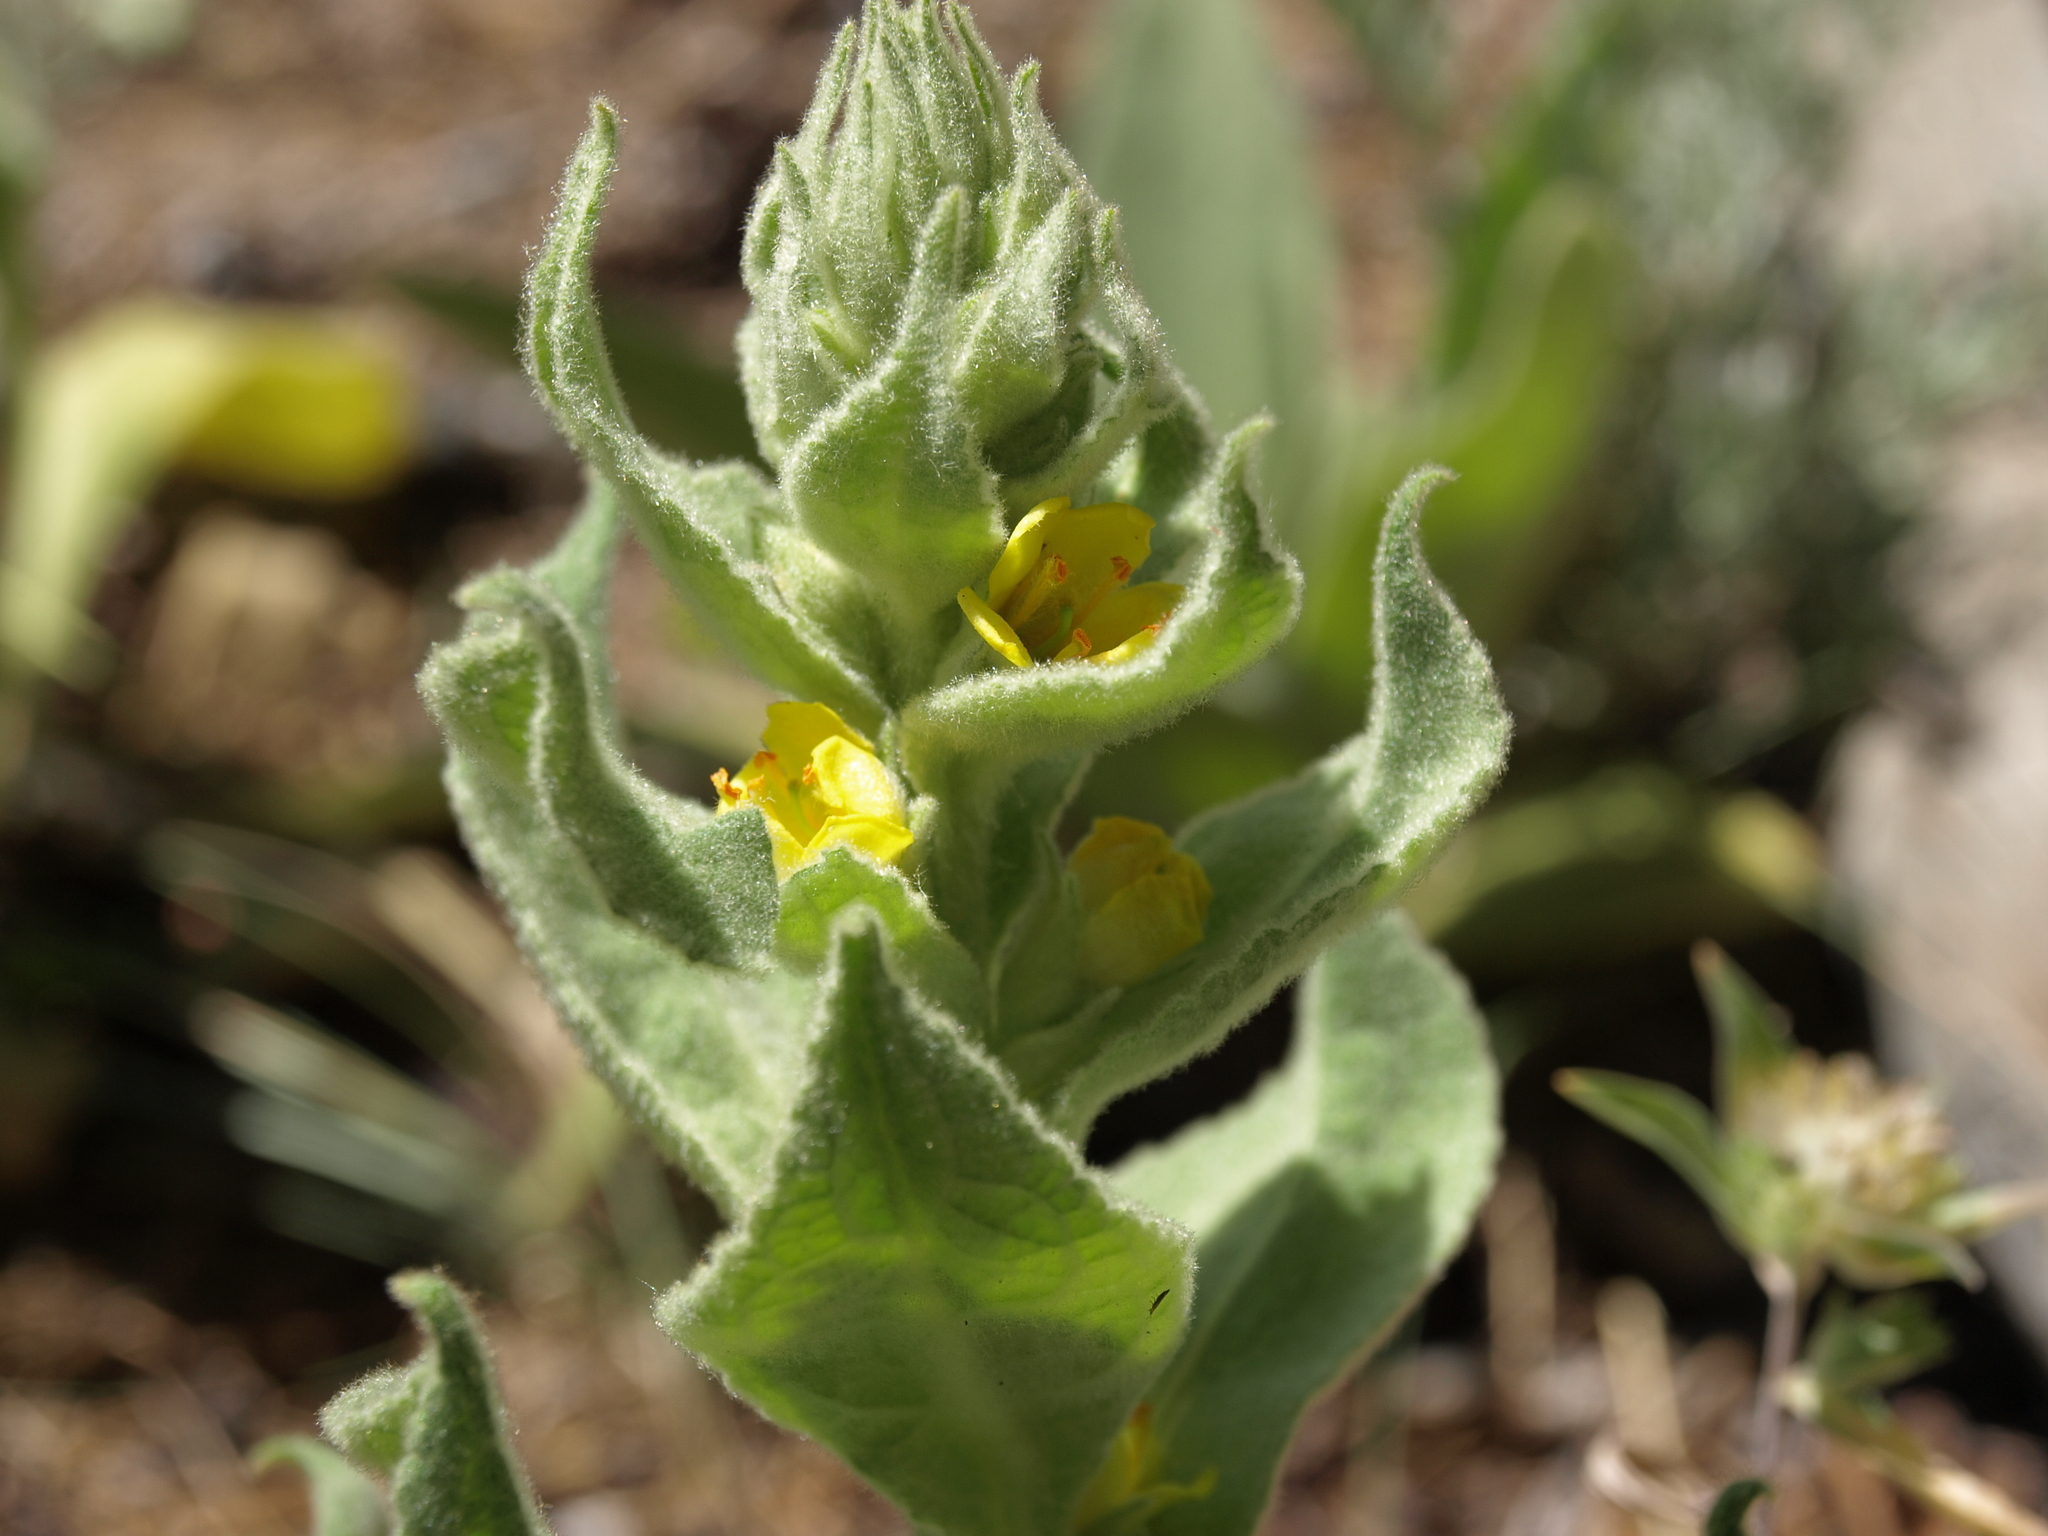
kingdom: Plantae
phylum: Tracheophyta
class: Magnoliopsida
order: Lamiales
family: Scrophulariaceae
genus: Verbascum
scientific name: Verbascum thapsus
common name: Common mullein
